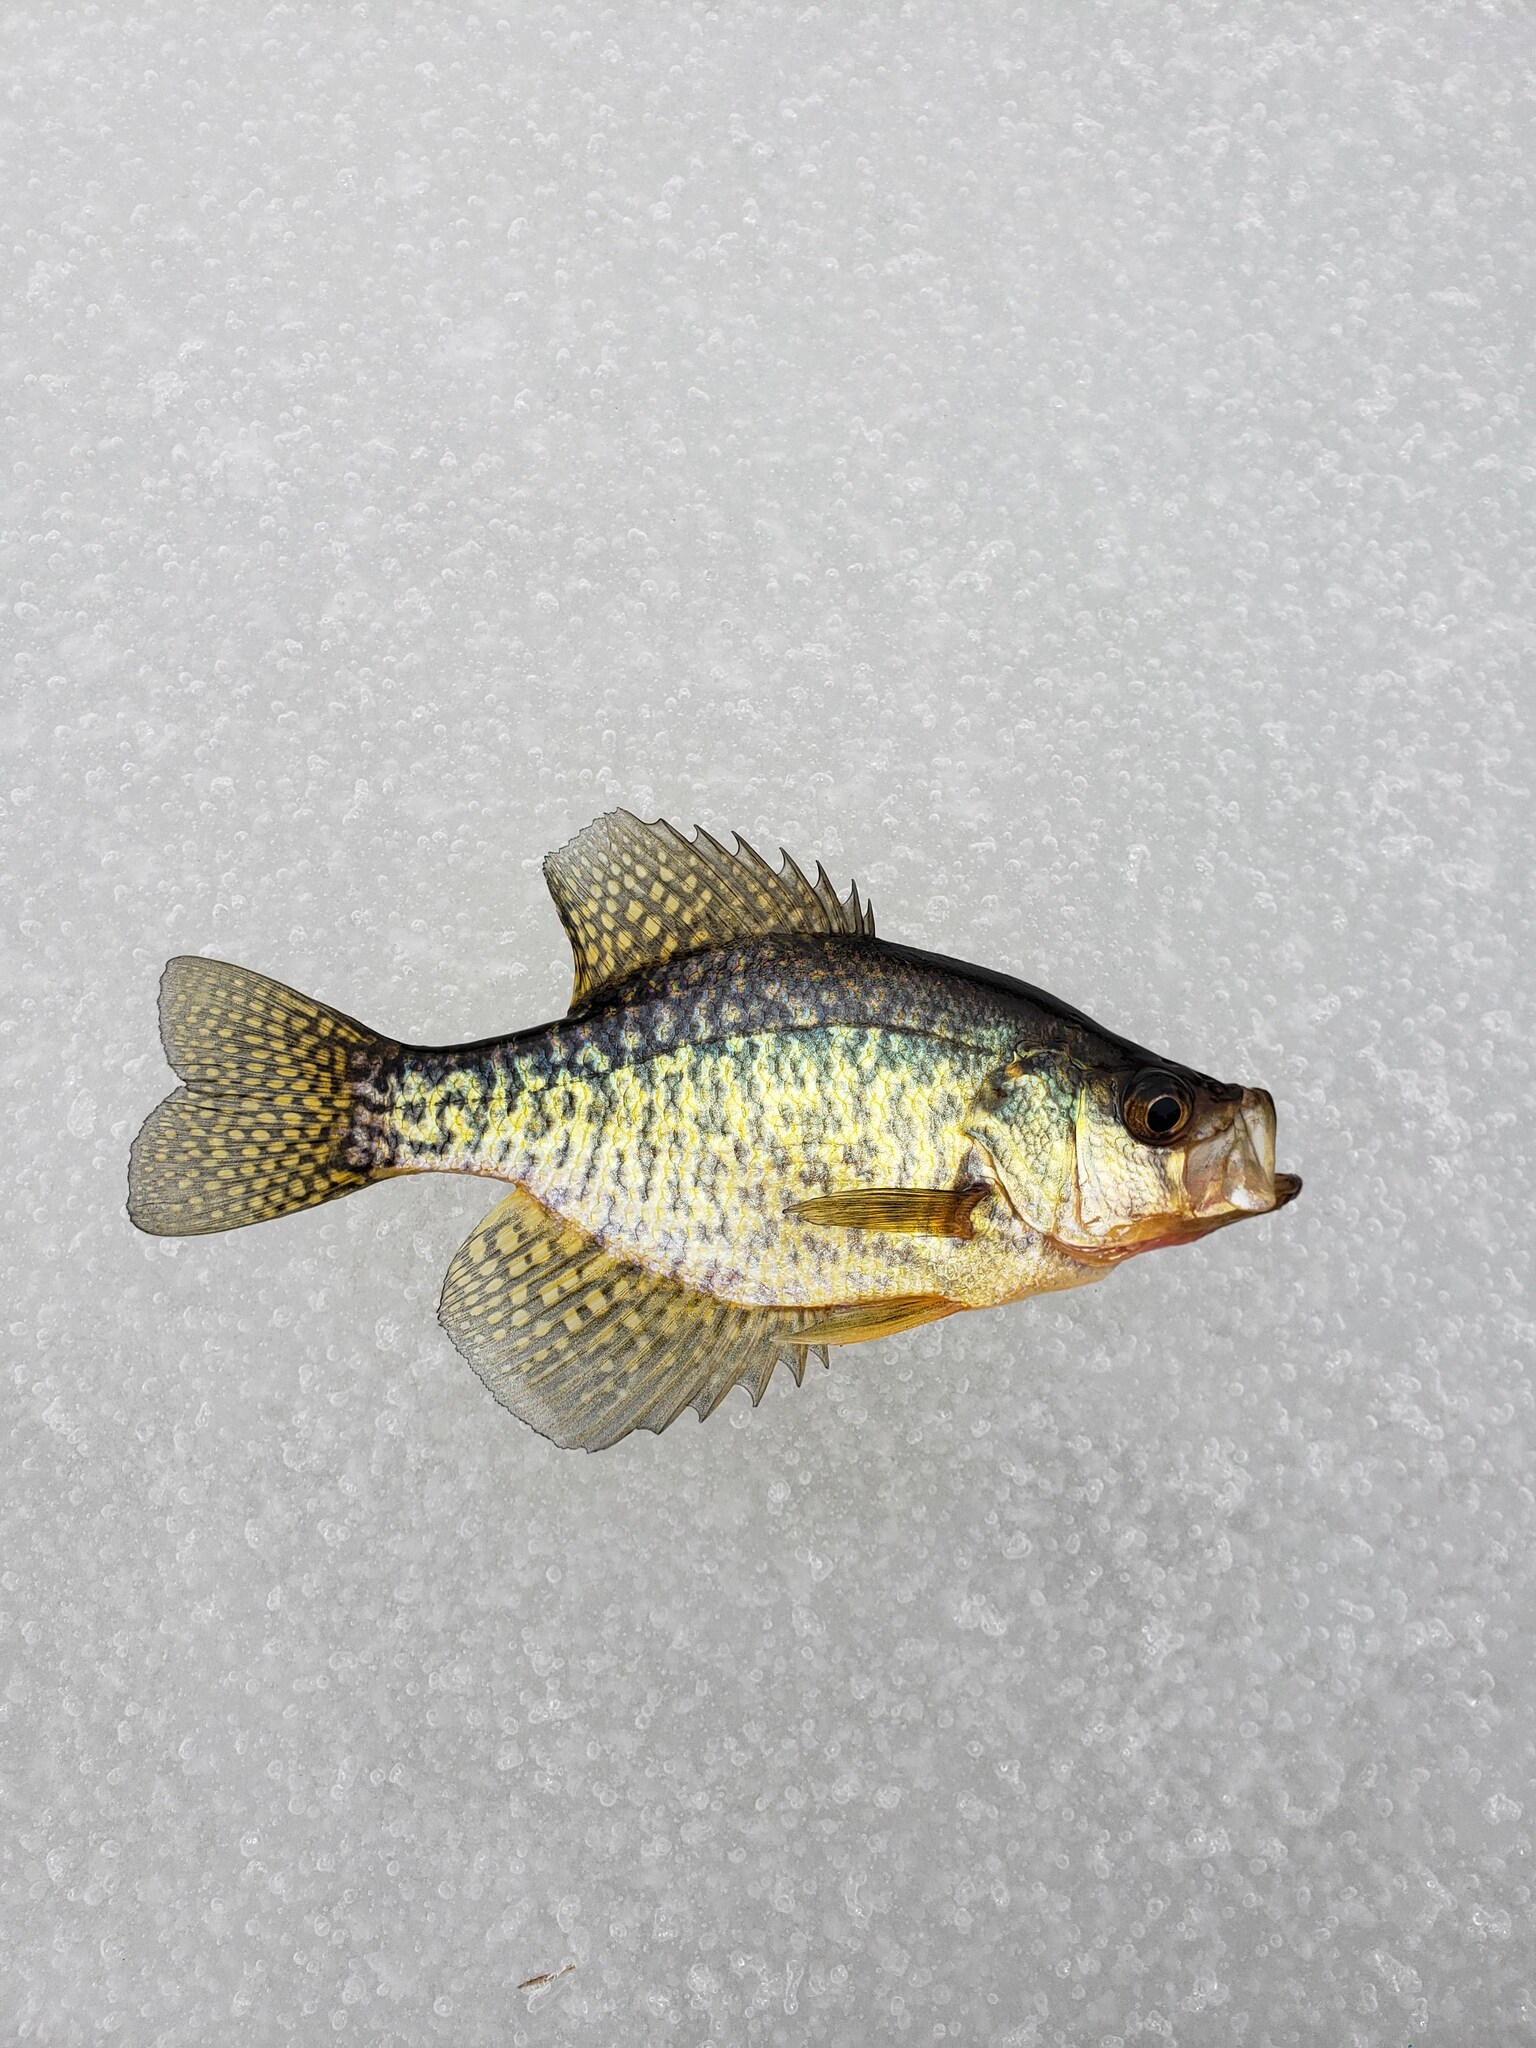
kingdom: Animalia
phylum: Chordata
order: Perciformes
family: Centrarchidae
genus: Pomoxis
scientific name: Pomoxis nigromaculatus
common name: Black crappie
